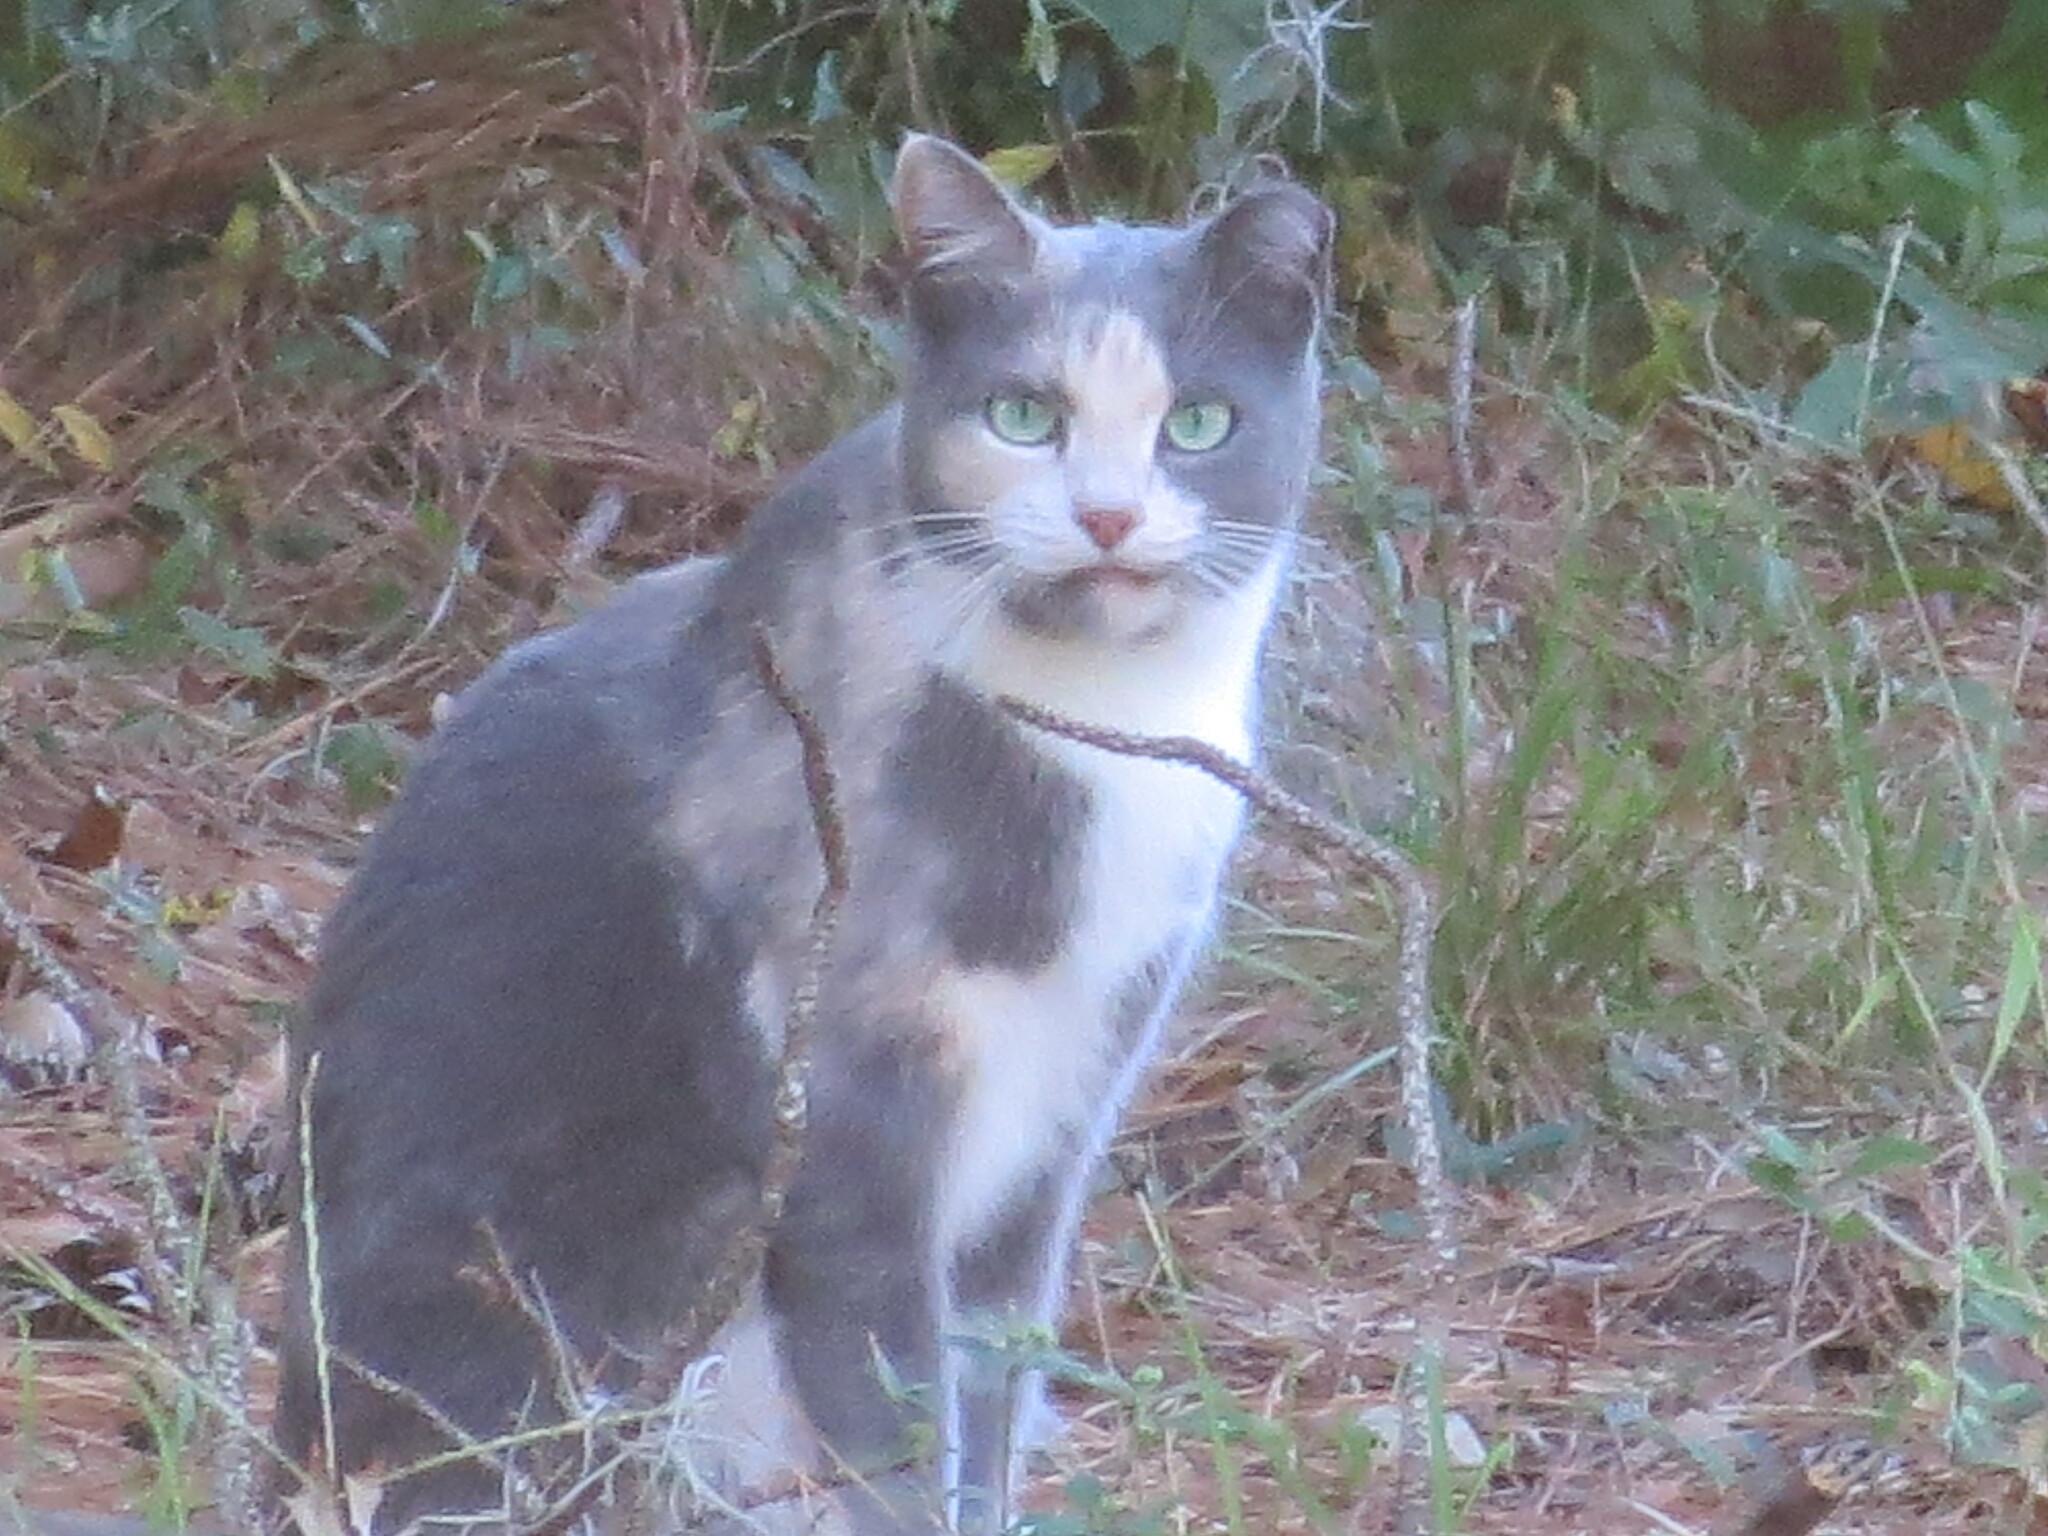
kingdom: Animalia
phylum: Chordata
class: Mammalia
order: Carnivora
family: Felidae
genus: Felis
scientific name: Felis catus
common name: Domestic cat
